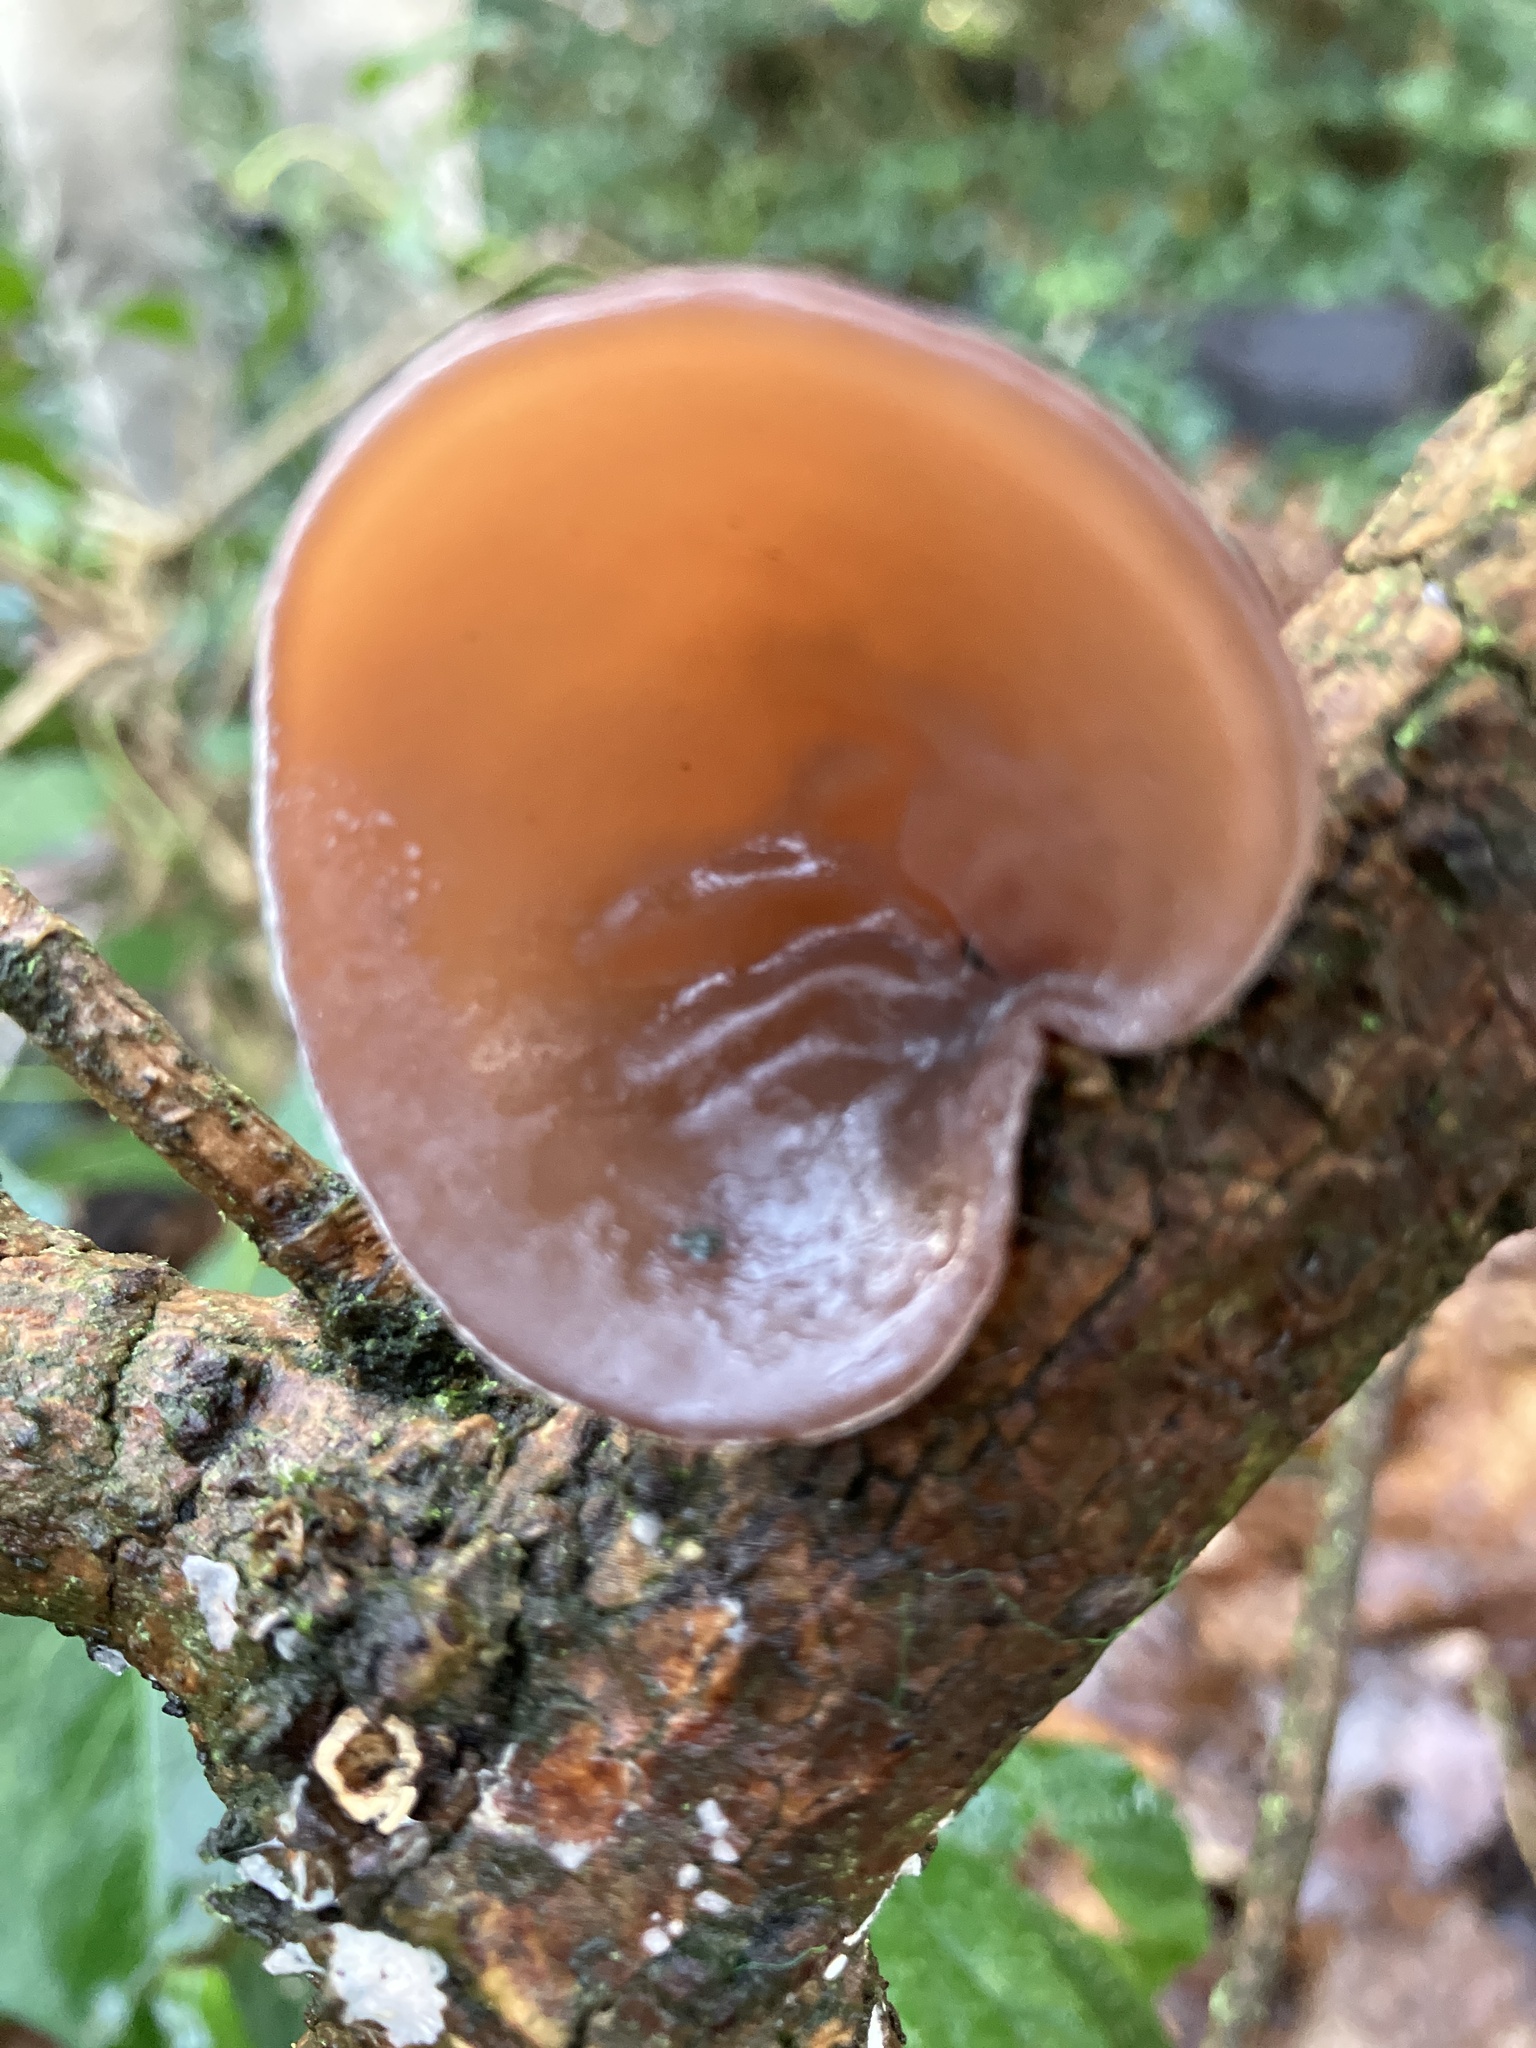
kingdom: Fungi
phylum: Basidiomycota
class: Agaricomycetes
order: Auriculariales
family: Auriculariaceae
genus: Auricularia
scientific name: Auricularia auricula-judae
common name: Jelly ear
